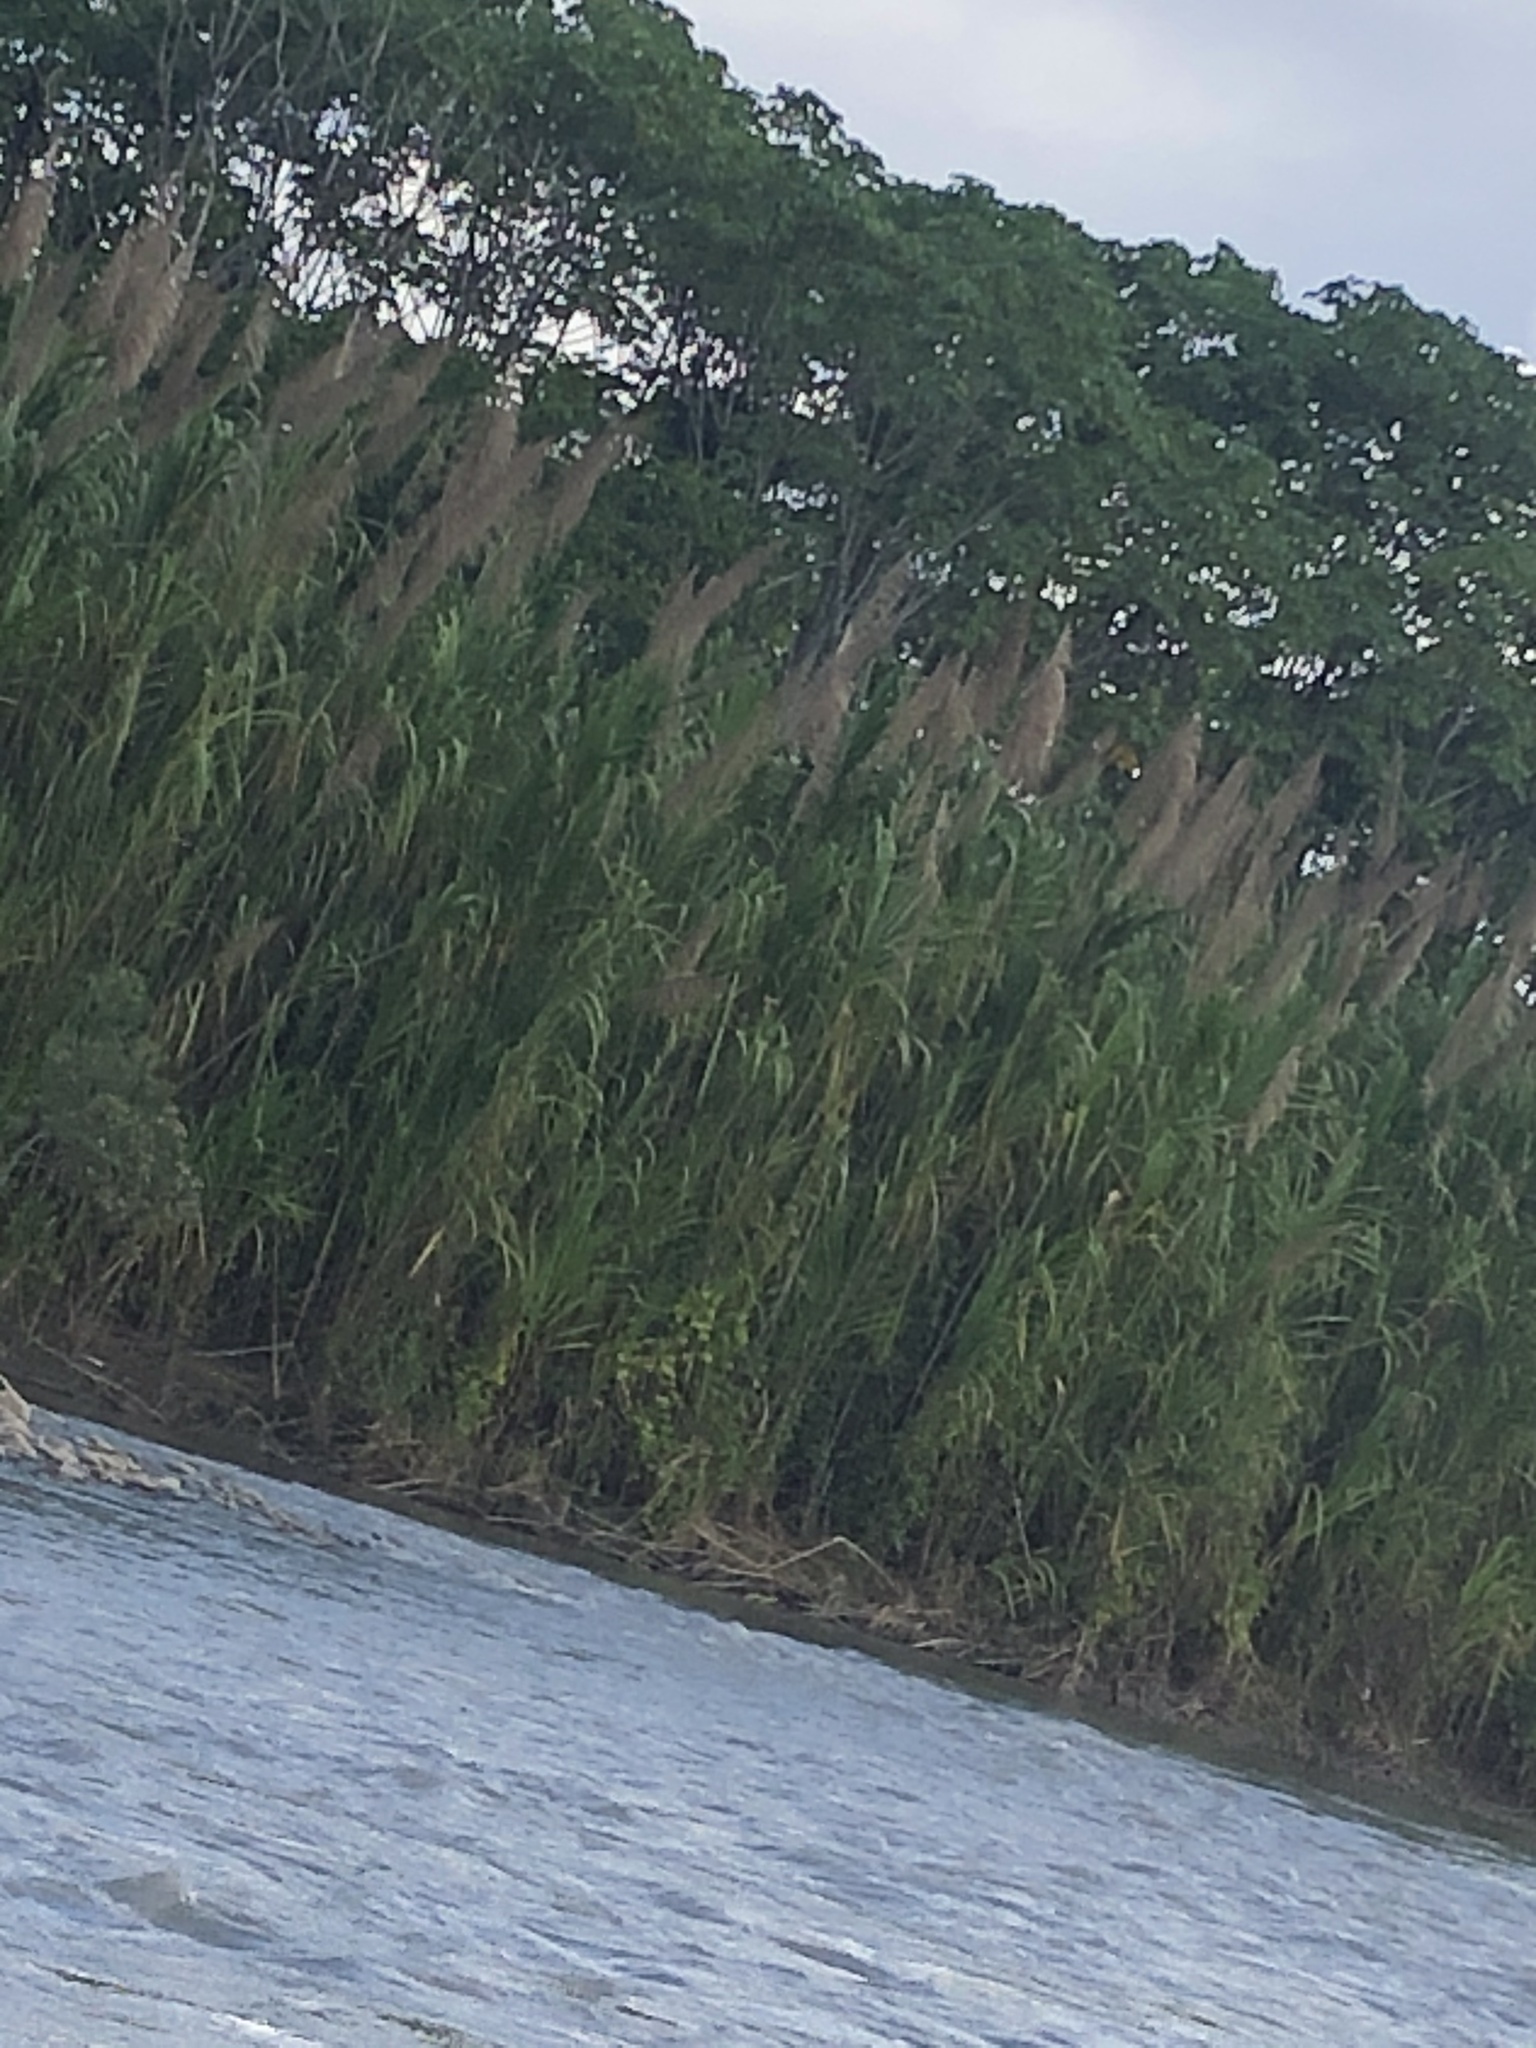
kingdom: Plantae
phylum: Tracheophyta
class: Liliopsida
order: Poales
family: Poaceae
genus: Gynerium
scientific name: Gynerium sagittatum
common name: Wild cane
